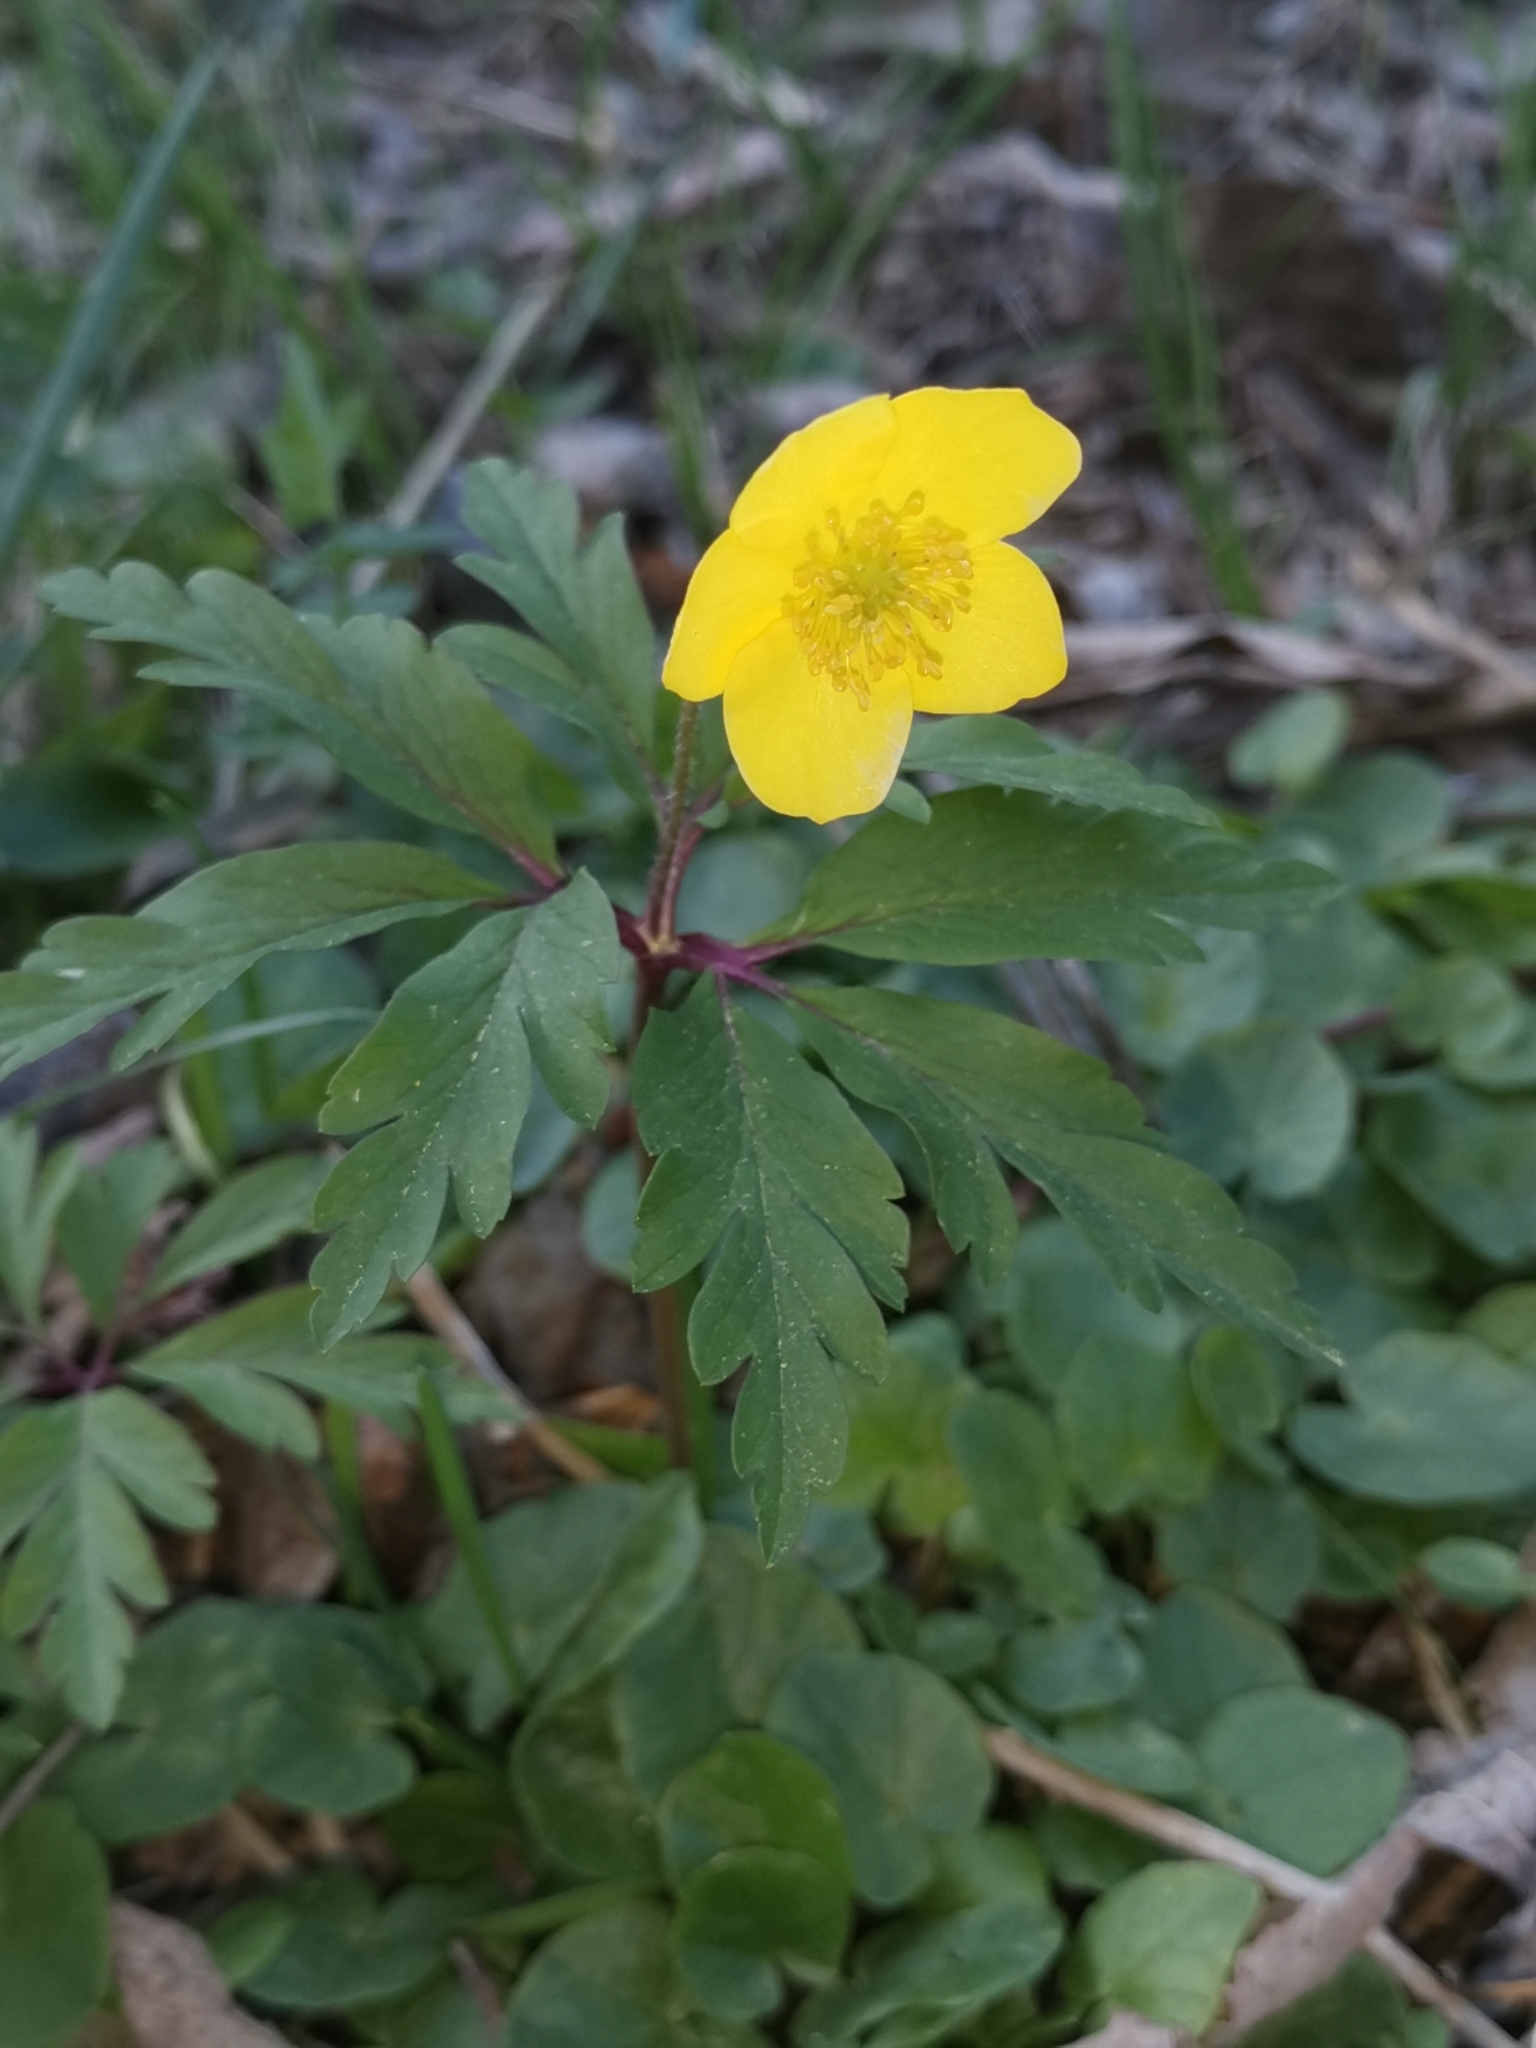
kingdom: Plantae
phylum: Tracheophyta
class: Magnoliopsida
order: Ranunculales
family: Ranunculaceae
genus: Anemone
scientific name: Anemone ranunculoides
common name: Yellow anemone
